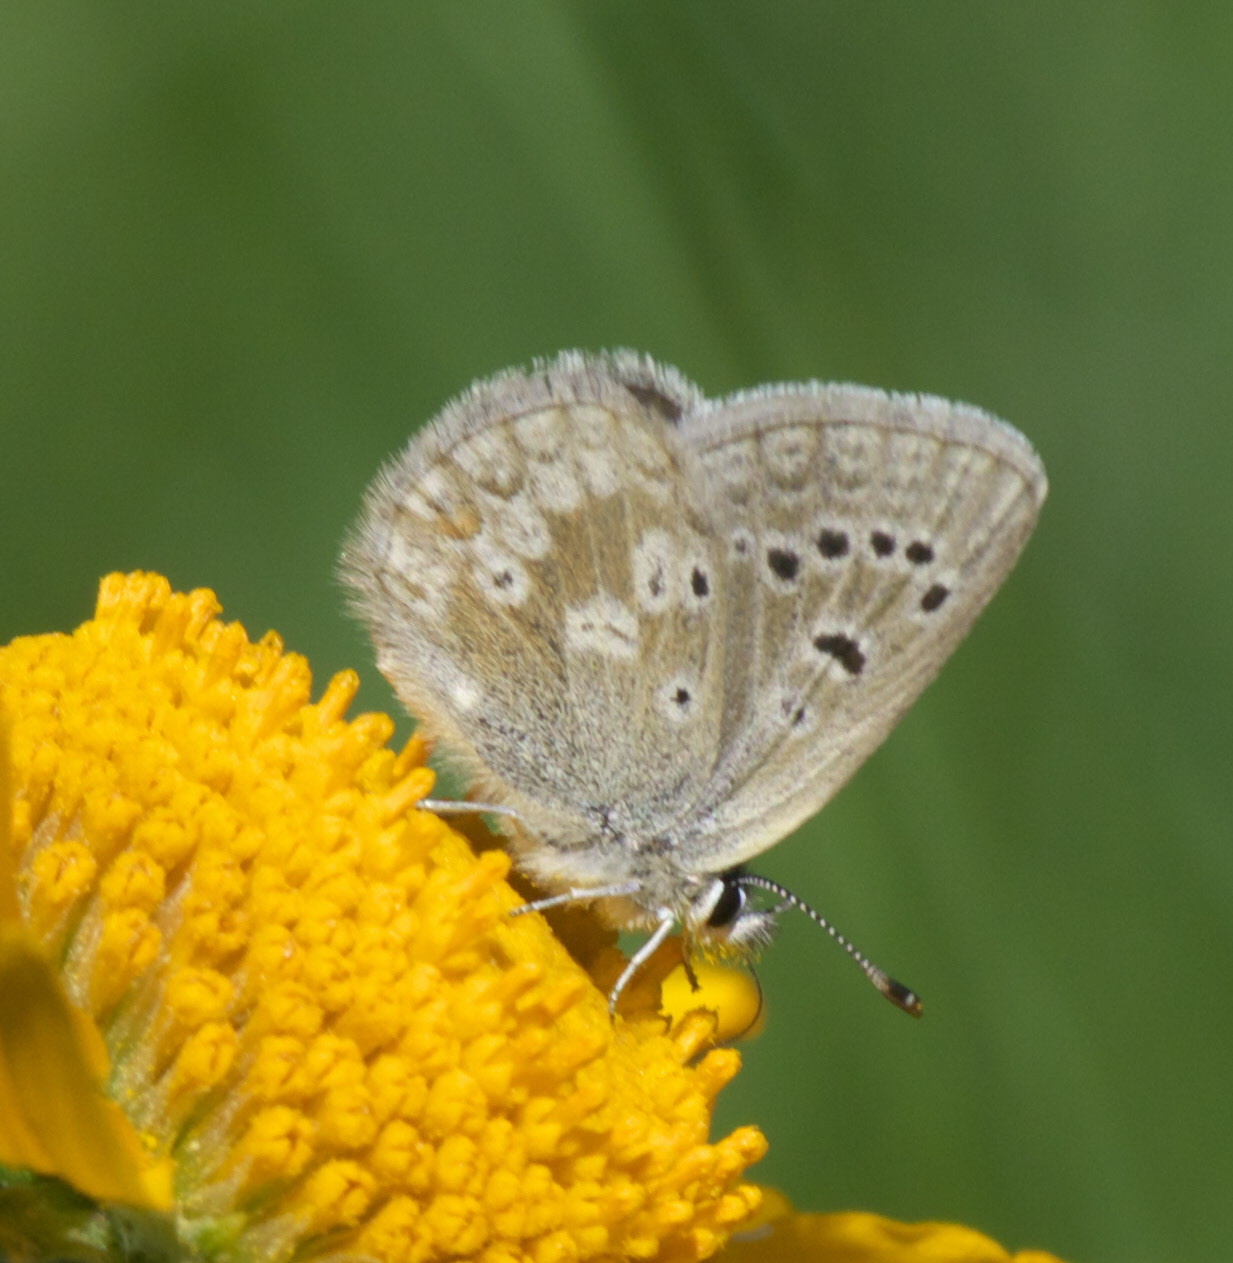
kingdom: Animalia
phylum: Arthropoda
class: Insecta
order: Lepidoptera
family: Lycaenidae
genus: Agriades
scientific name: Agriades glandon
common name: Glandon blue
